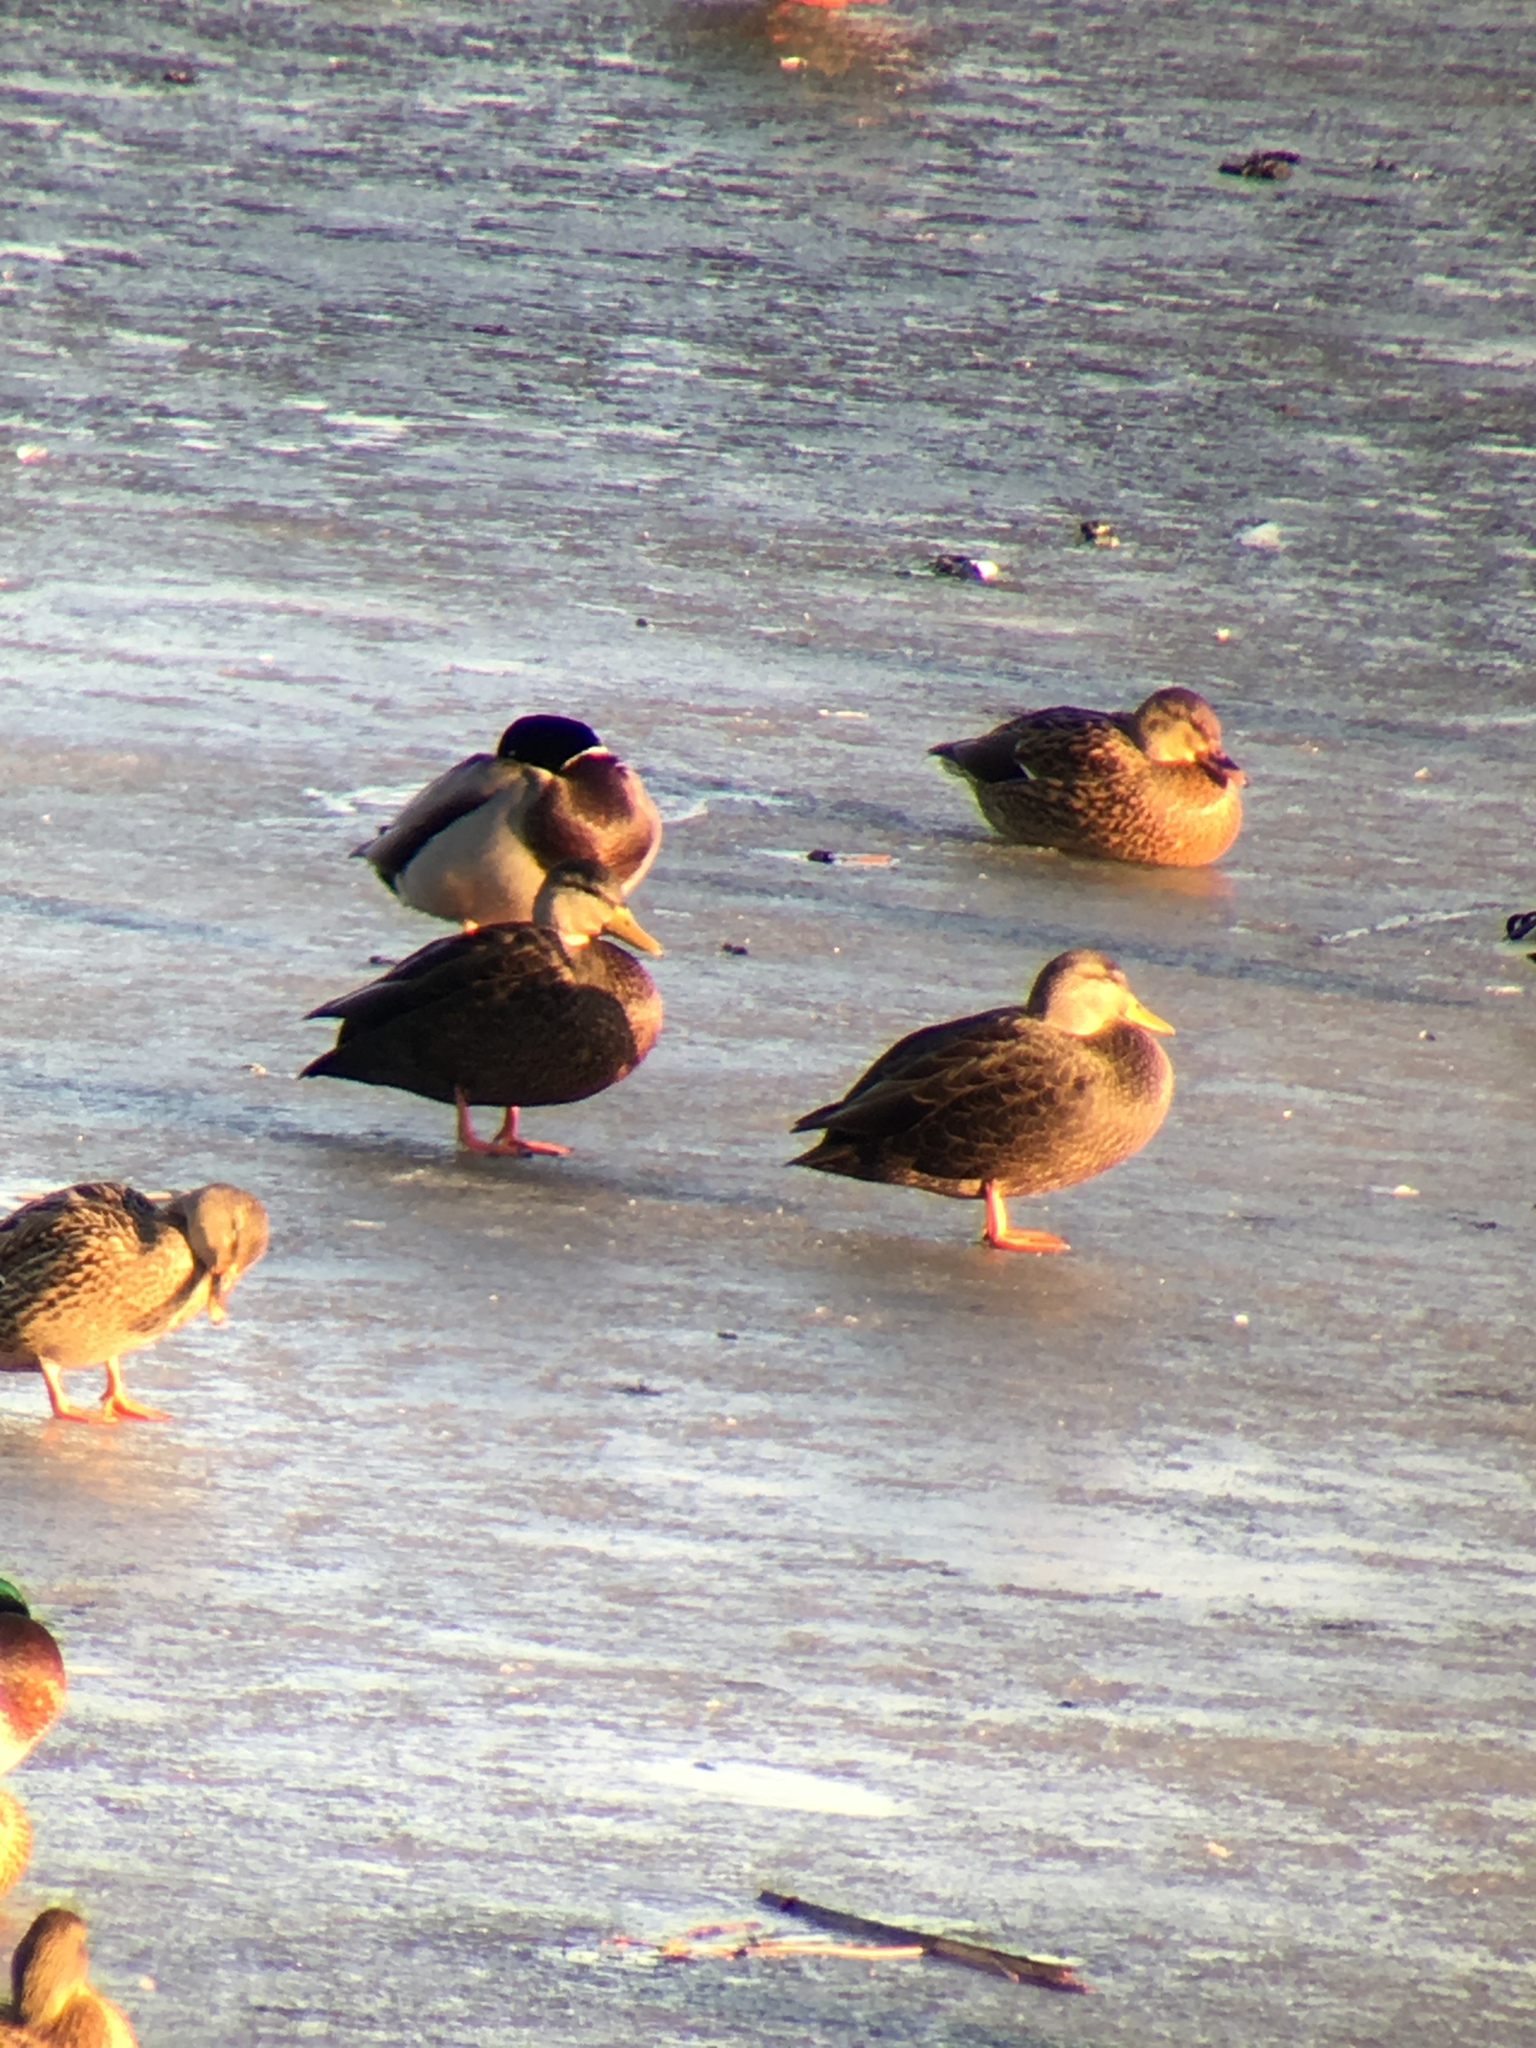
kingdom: Animalia
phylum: Chordata
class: Aves
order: Anseriformes
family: Anatidae
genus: Anas
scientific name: Anas rubripes
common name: American black duck
